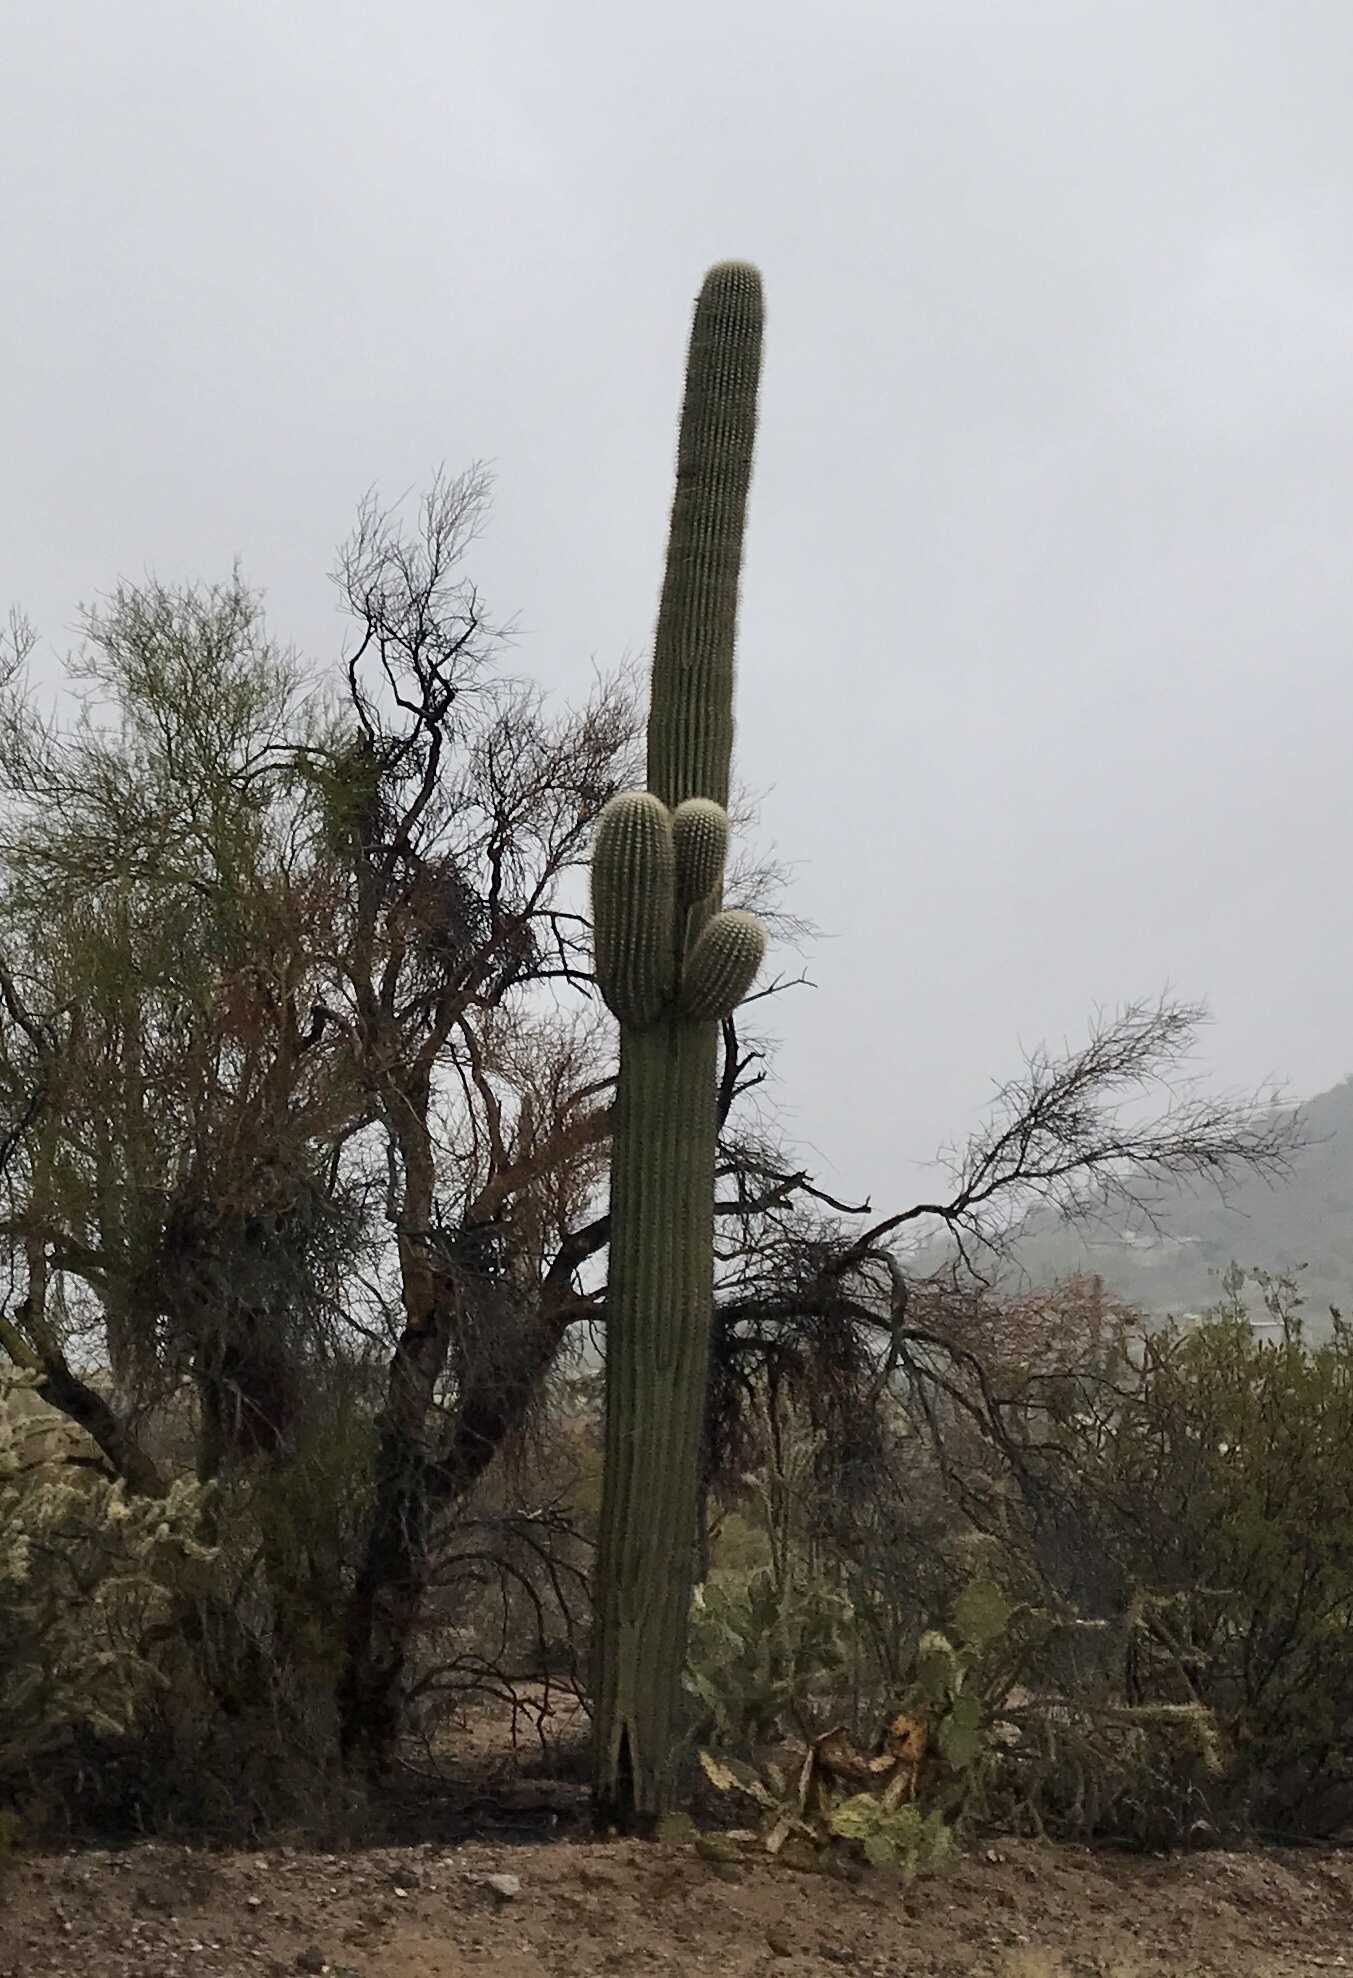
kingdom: Plantae
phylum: Tracheophyta
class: Magnoliopsida
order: Caryophyllales
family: Cactaceae
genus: Carnegiea
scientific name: Carnegiea gigantea
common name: Saguaro
